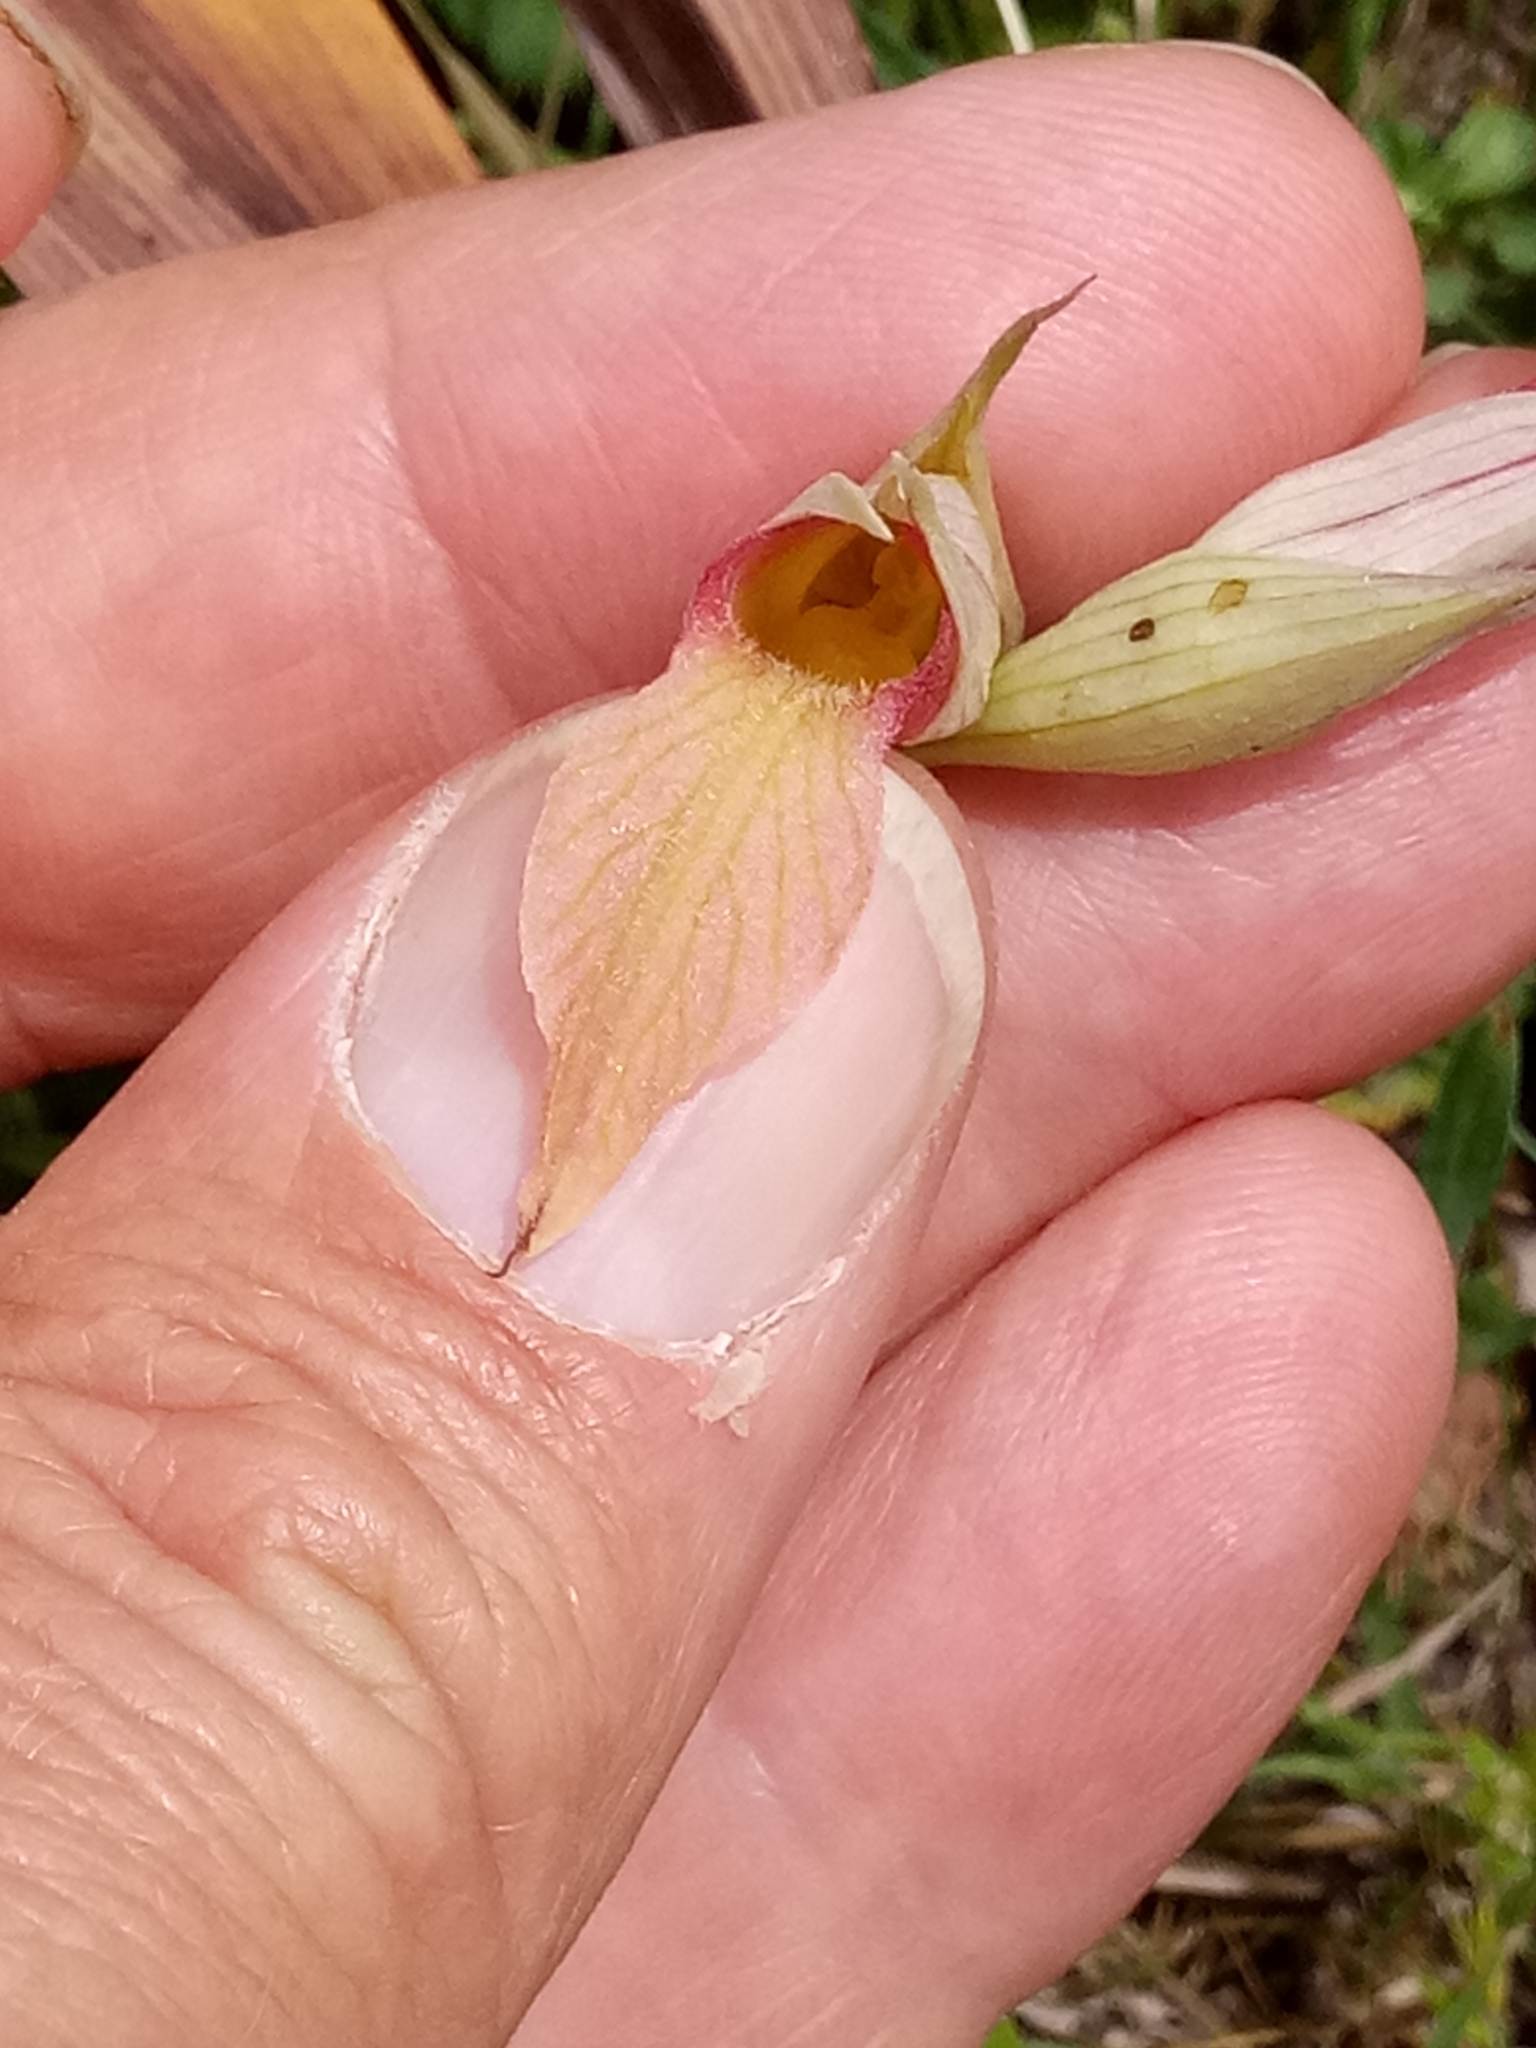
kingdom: Plantae
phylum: Tracheophyta
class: Liliopsida
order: Asparagales
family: Orchidaceae
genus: Serapias
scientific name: Serapias lingua
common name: Tongue-orchid
